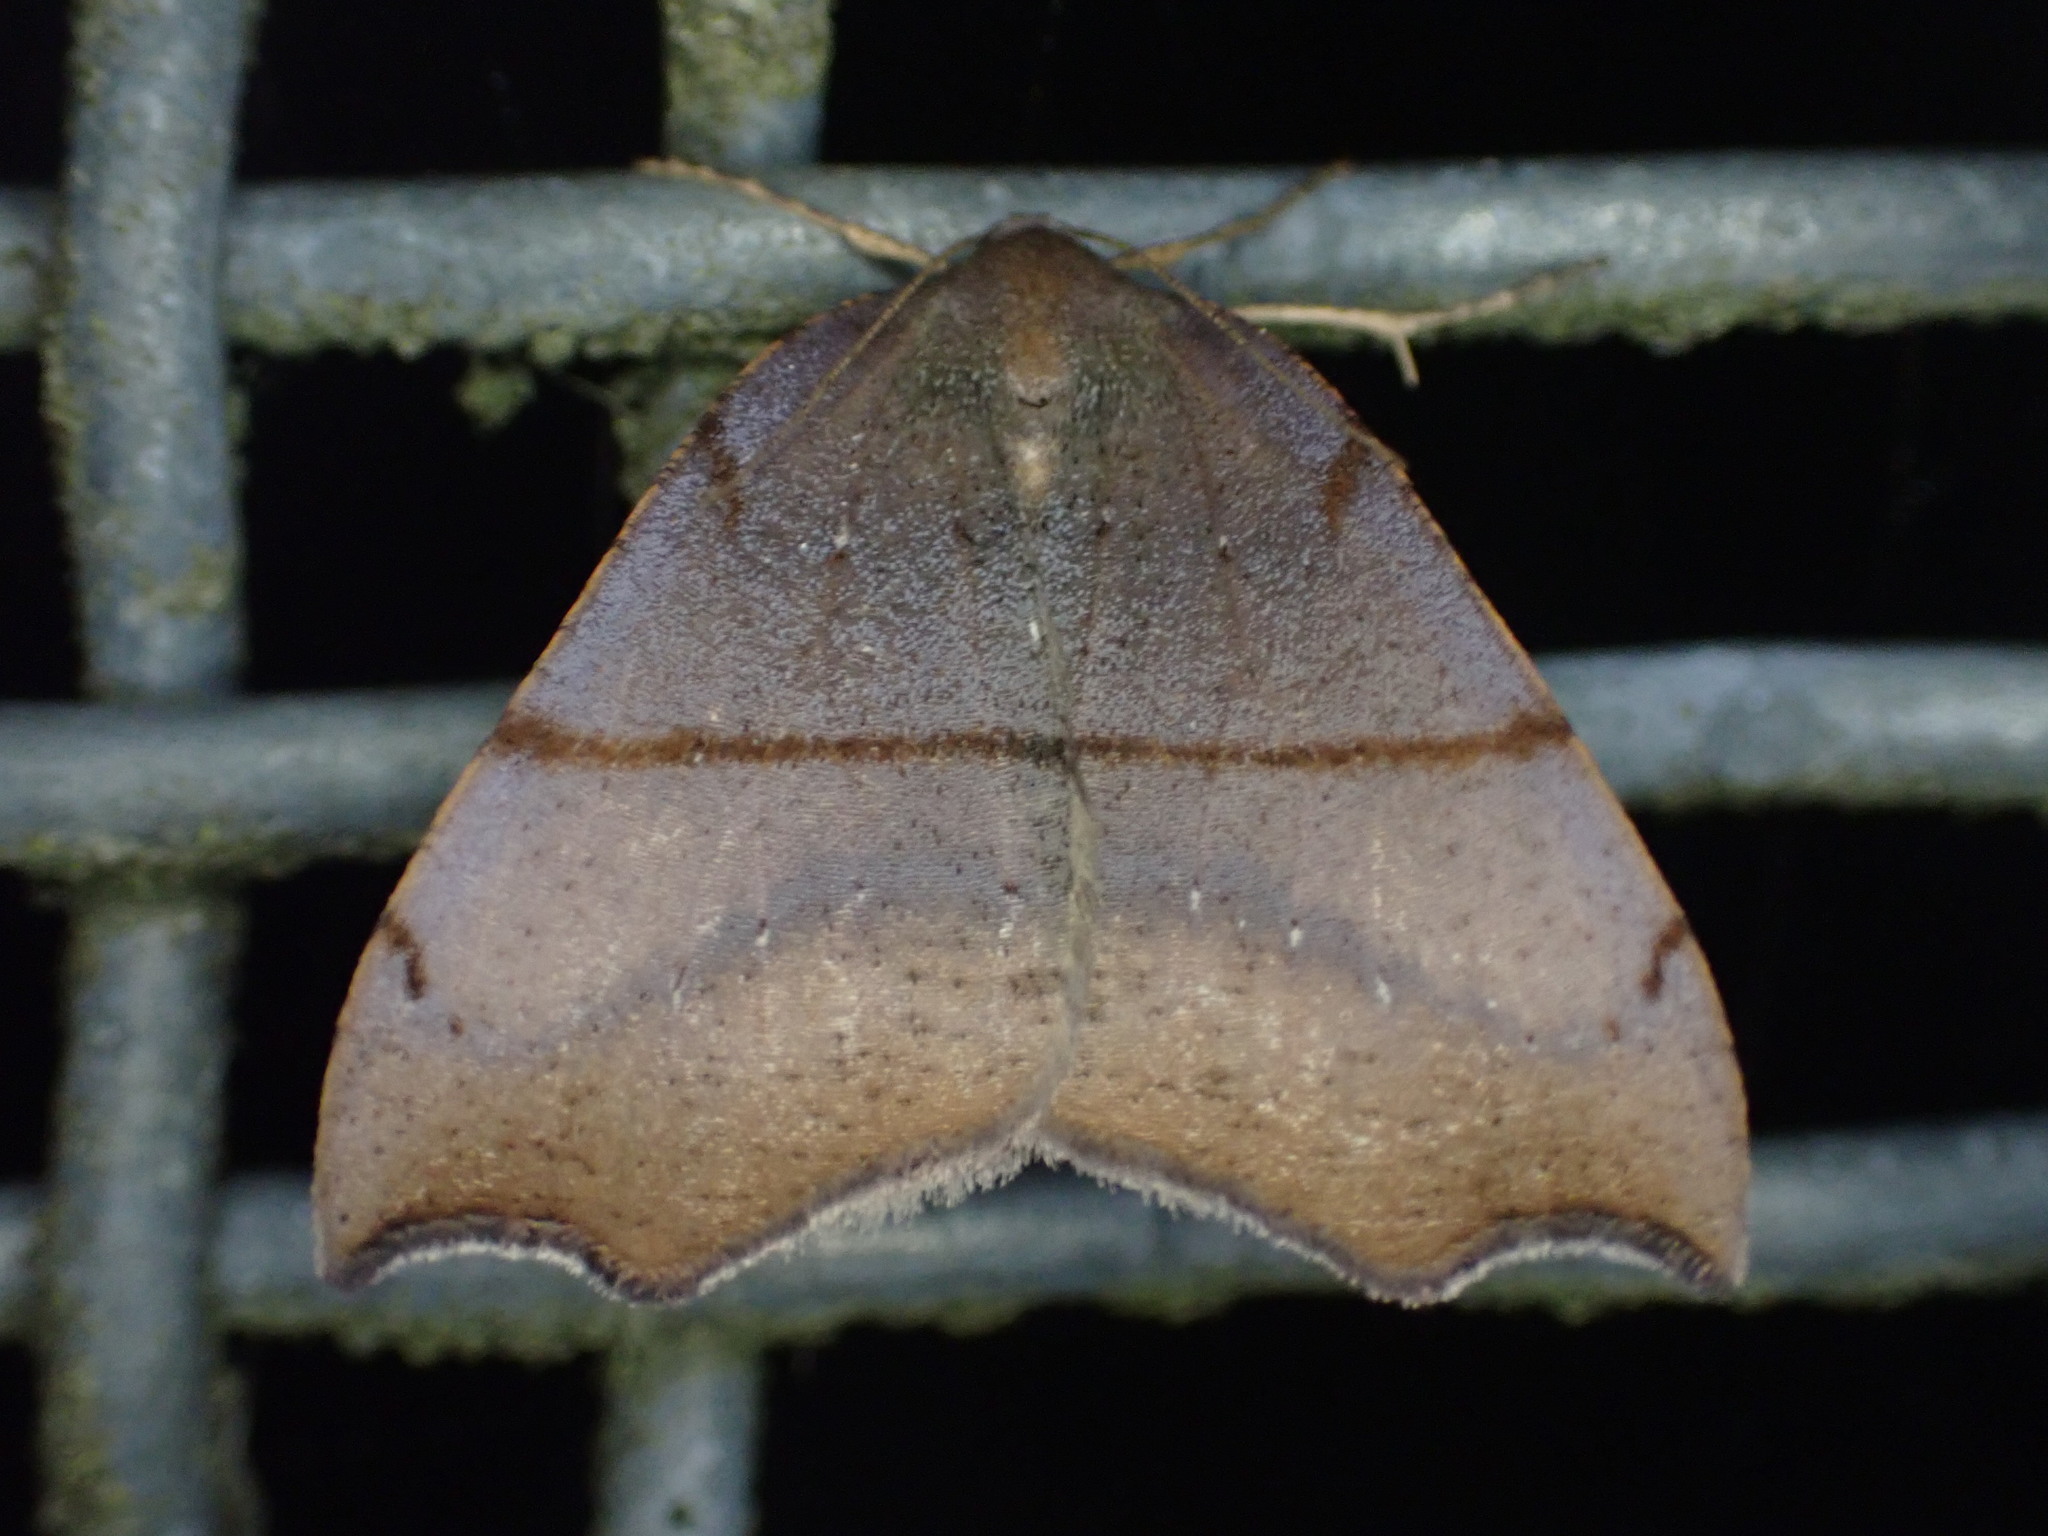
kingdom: Animalia
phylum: Arthropoda
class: Insecta
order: Lepidoptera
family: Geometridae
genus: Sestra
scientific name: Sestra flexata
